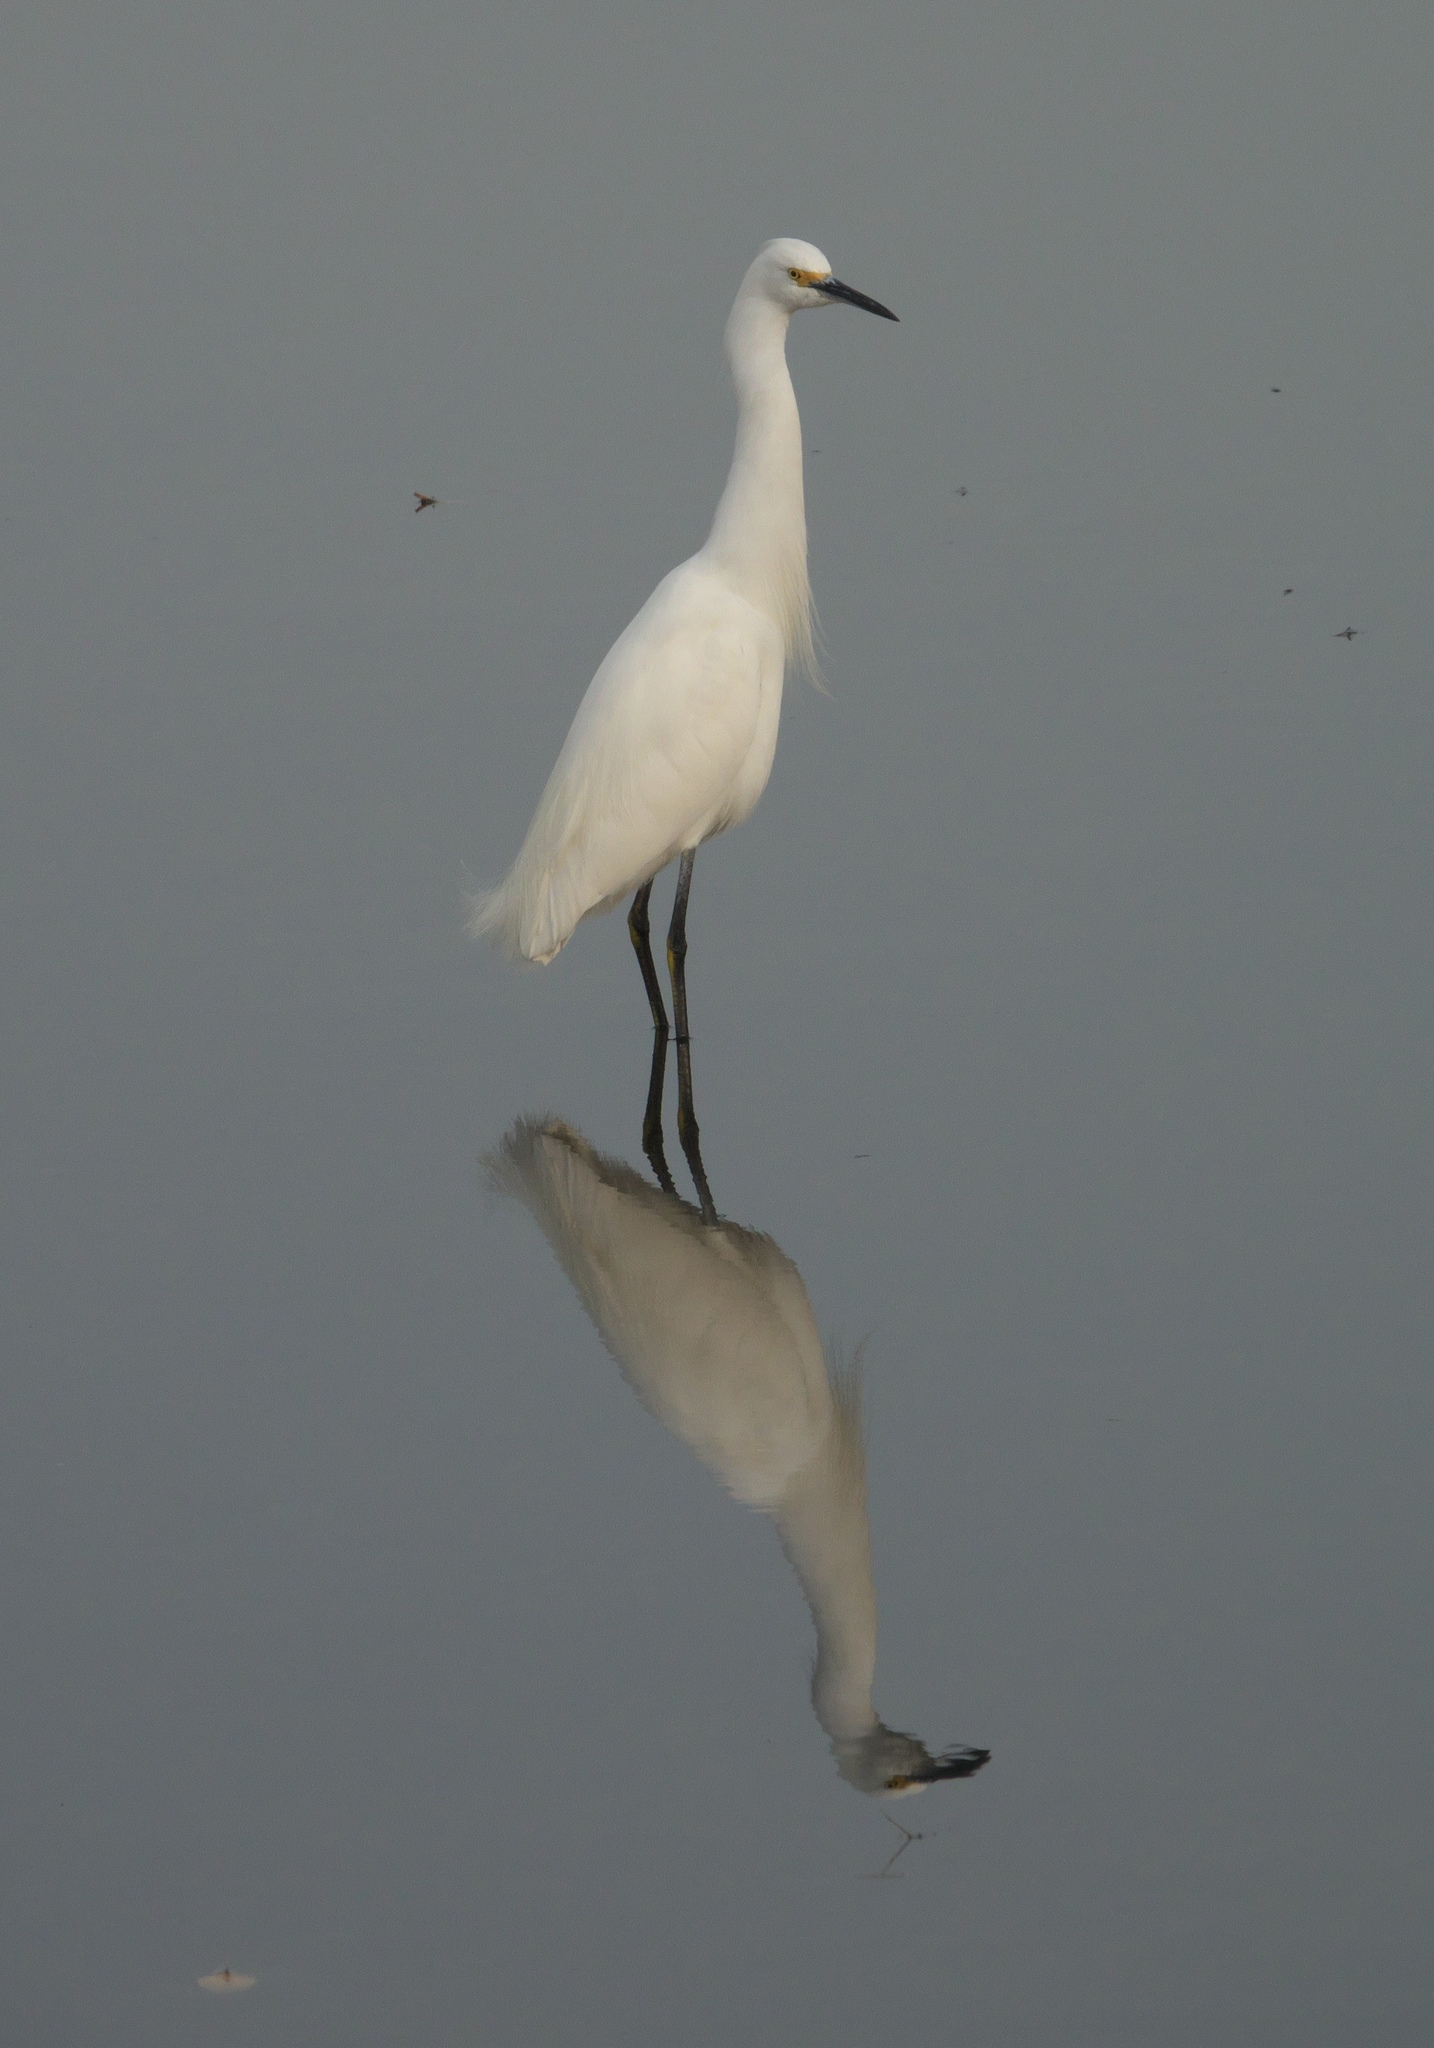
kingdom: Animalia
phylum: Chordata
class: Aves
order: Pelecaniformes
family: Ardeidae
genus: Egretta
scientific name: Egretta thula
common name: Snowy egret
